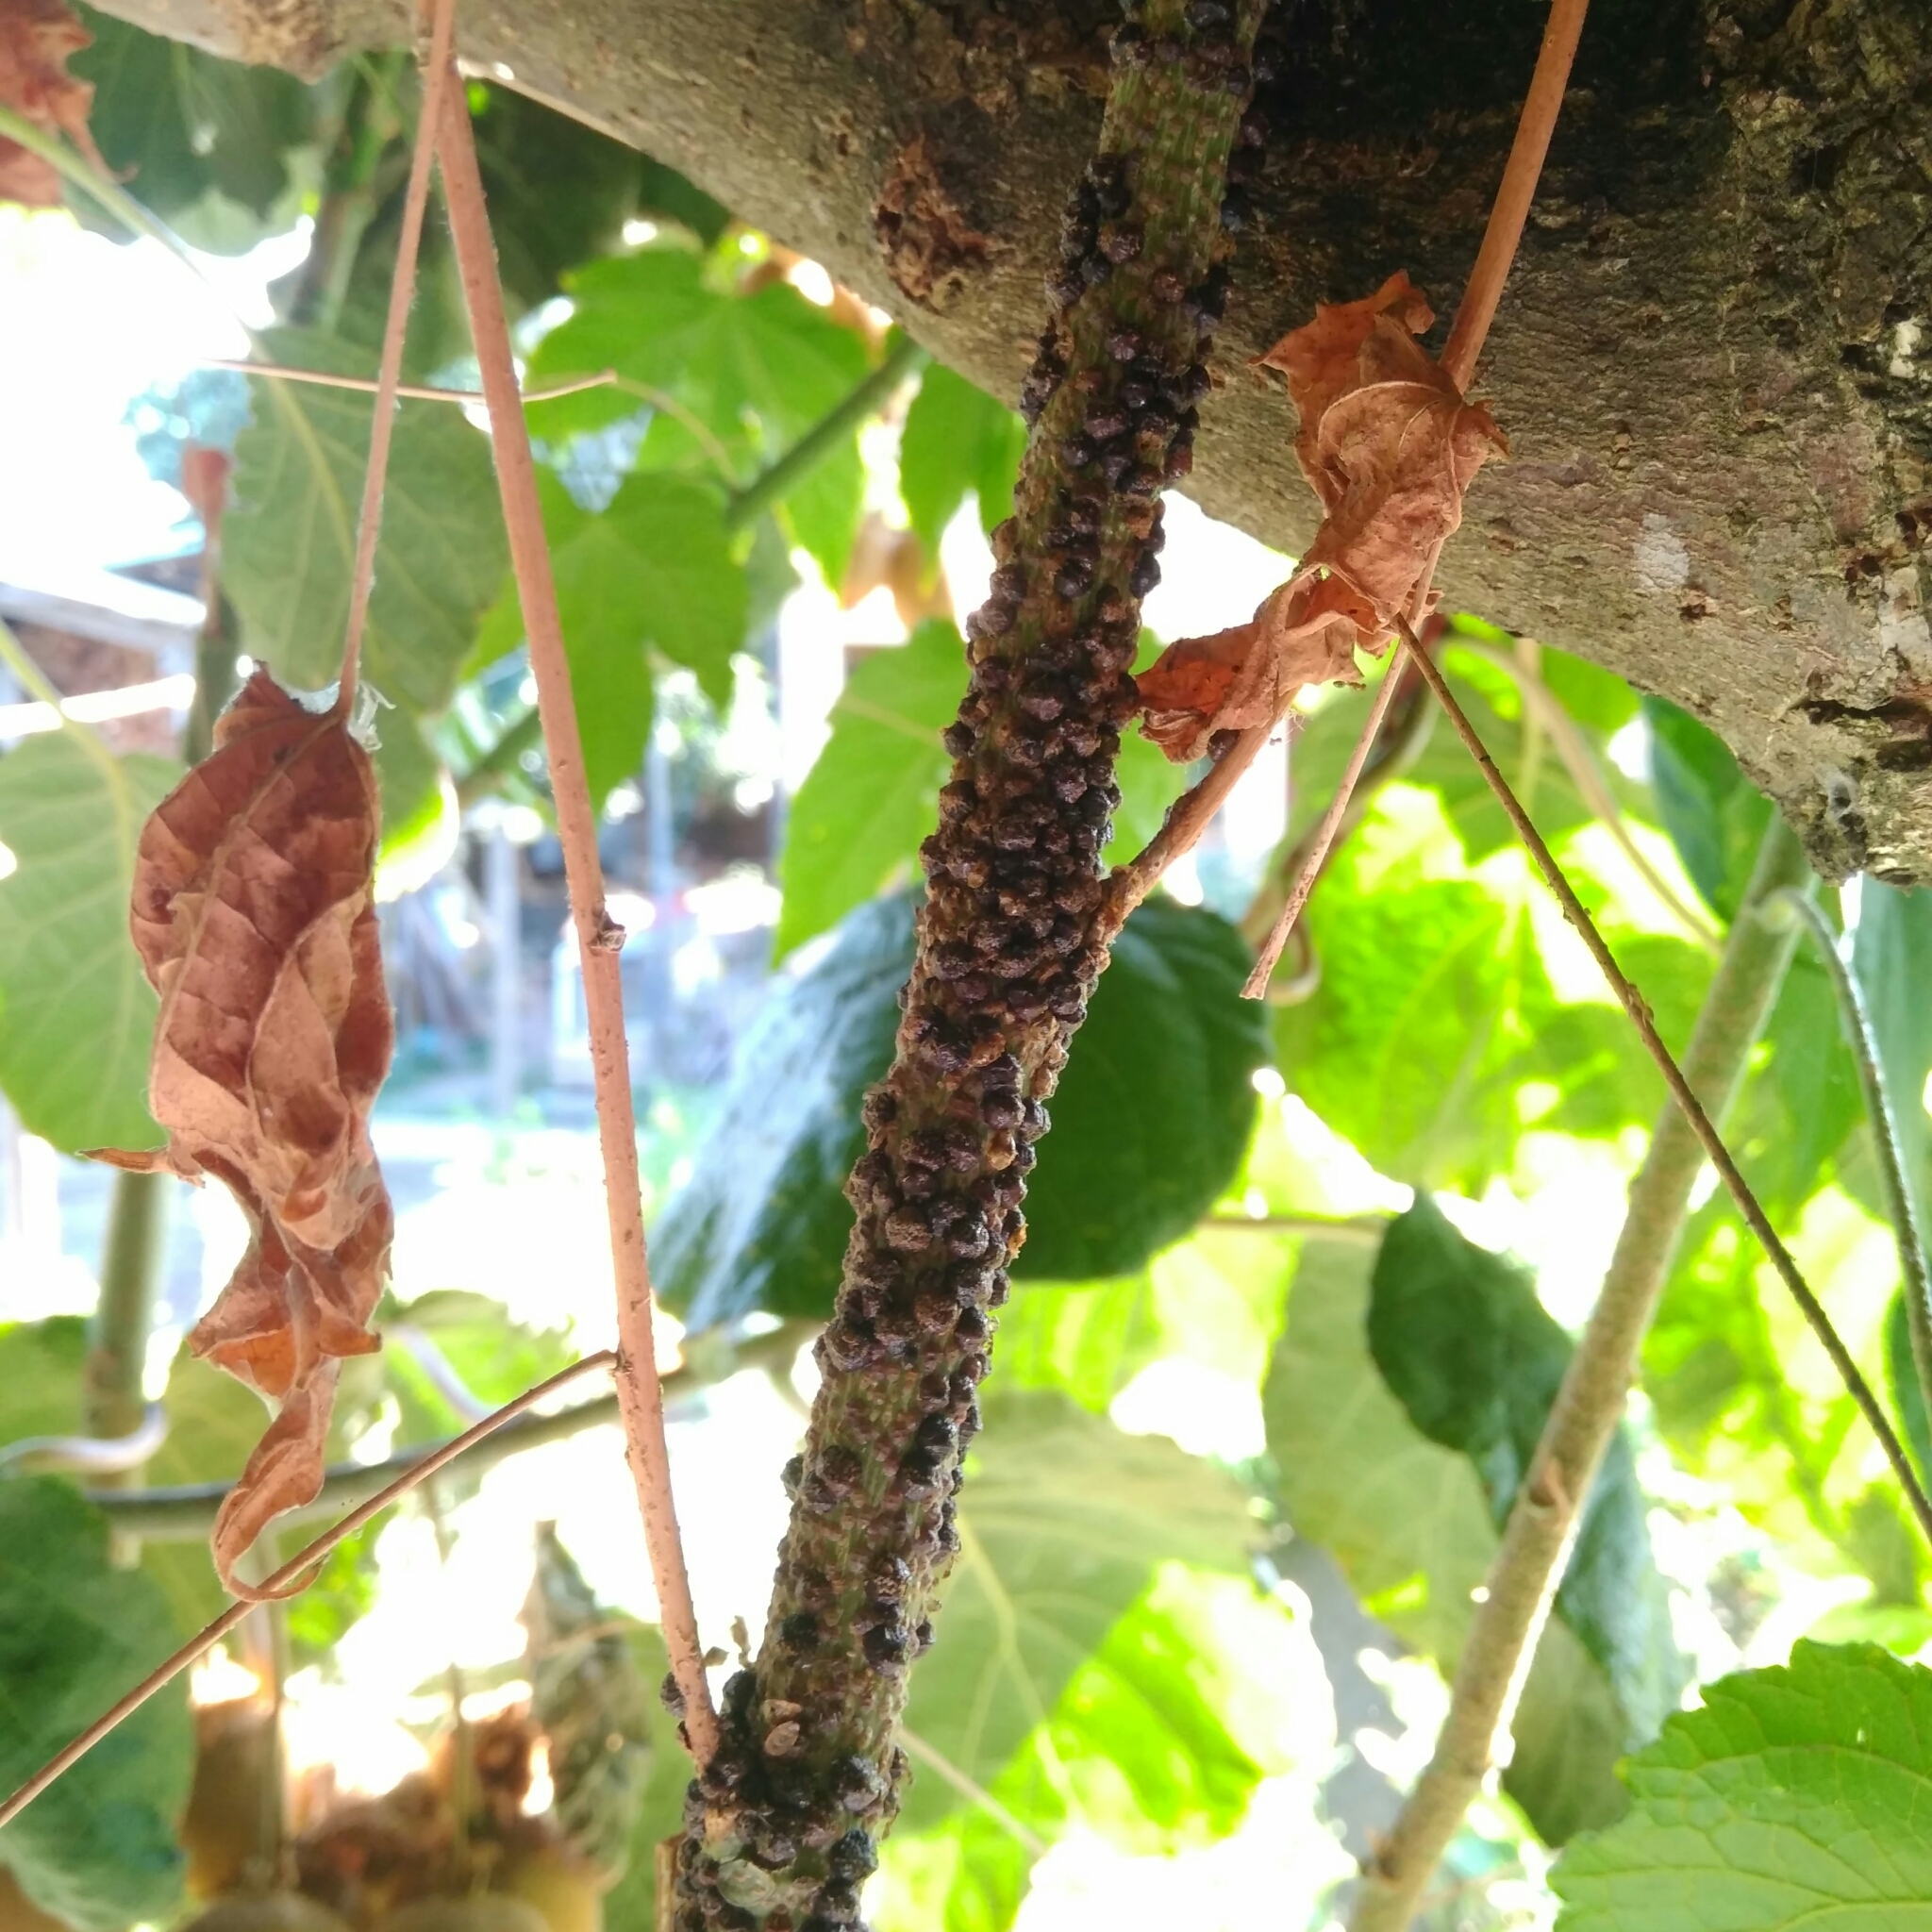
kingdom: Animalia
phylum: Arthropoda
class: Insecta
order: Hemiptera
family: Coccidae
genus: Saissetia
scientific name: Saissetia oleae
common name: Black scale
